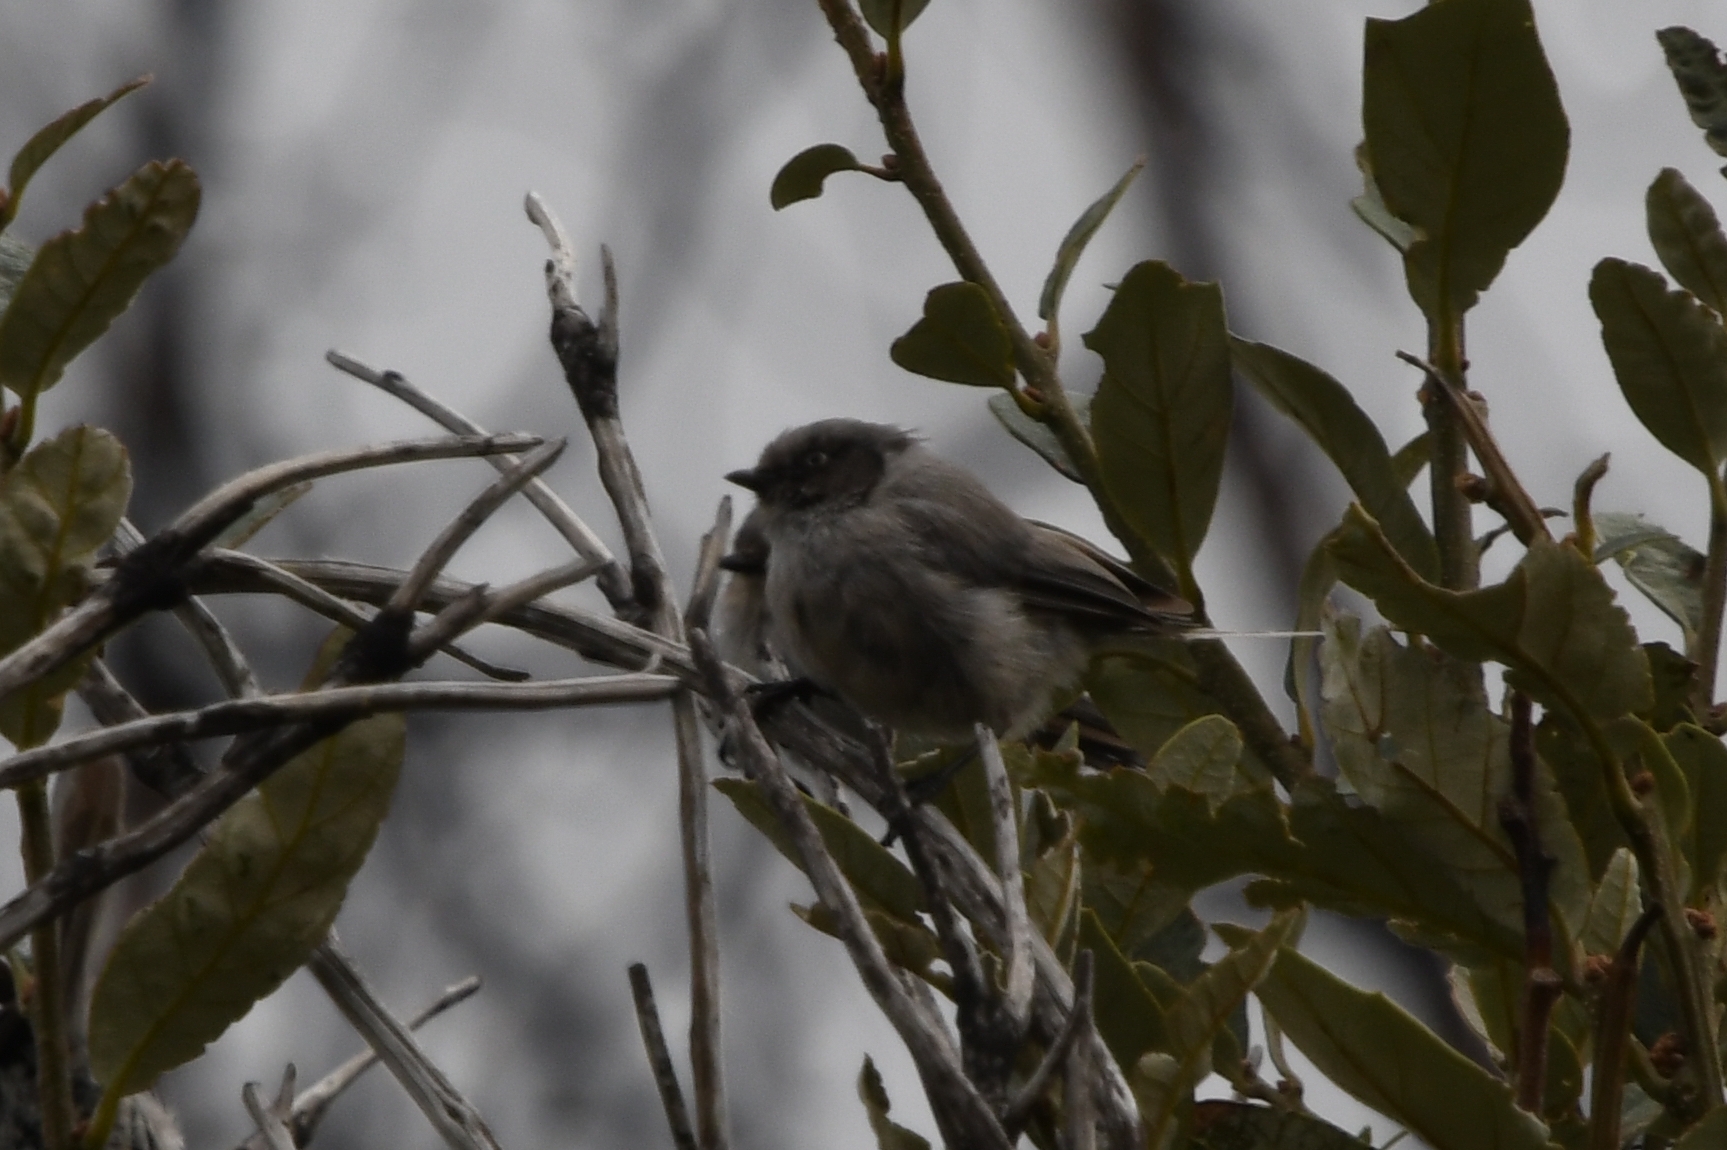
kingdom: Animalia
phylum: Chordata
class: Aves
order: Passeriformes
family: Aegithalidae
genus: Psaltriparus
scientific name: Psaltriparus minimus
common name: American bushtit
